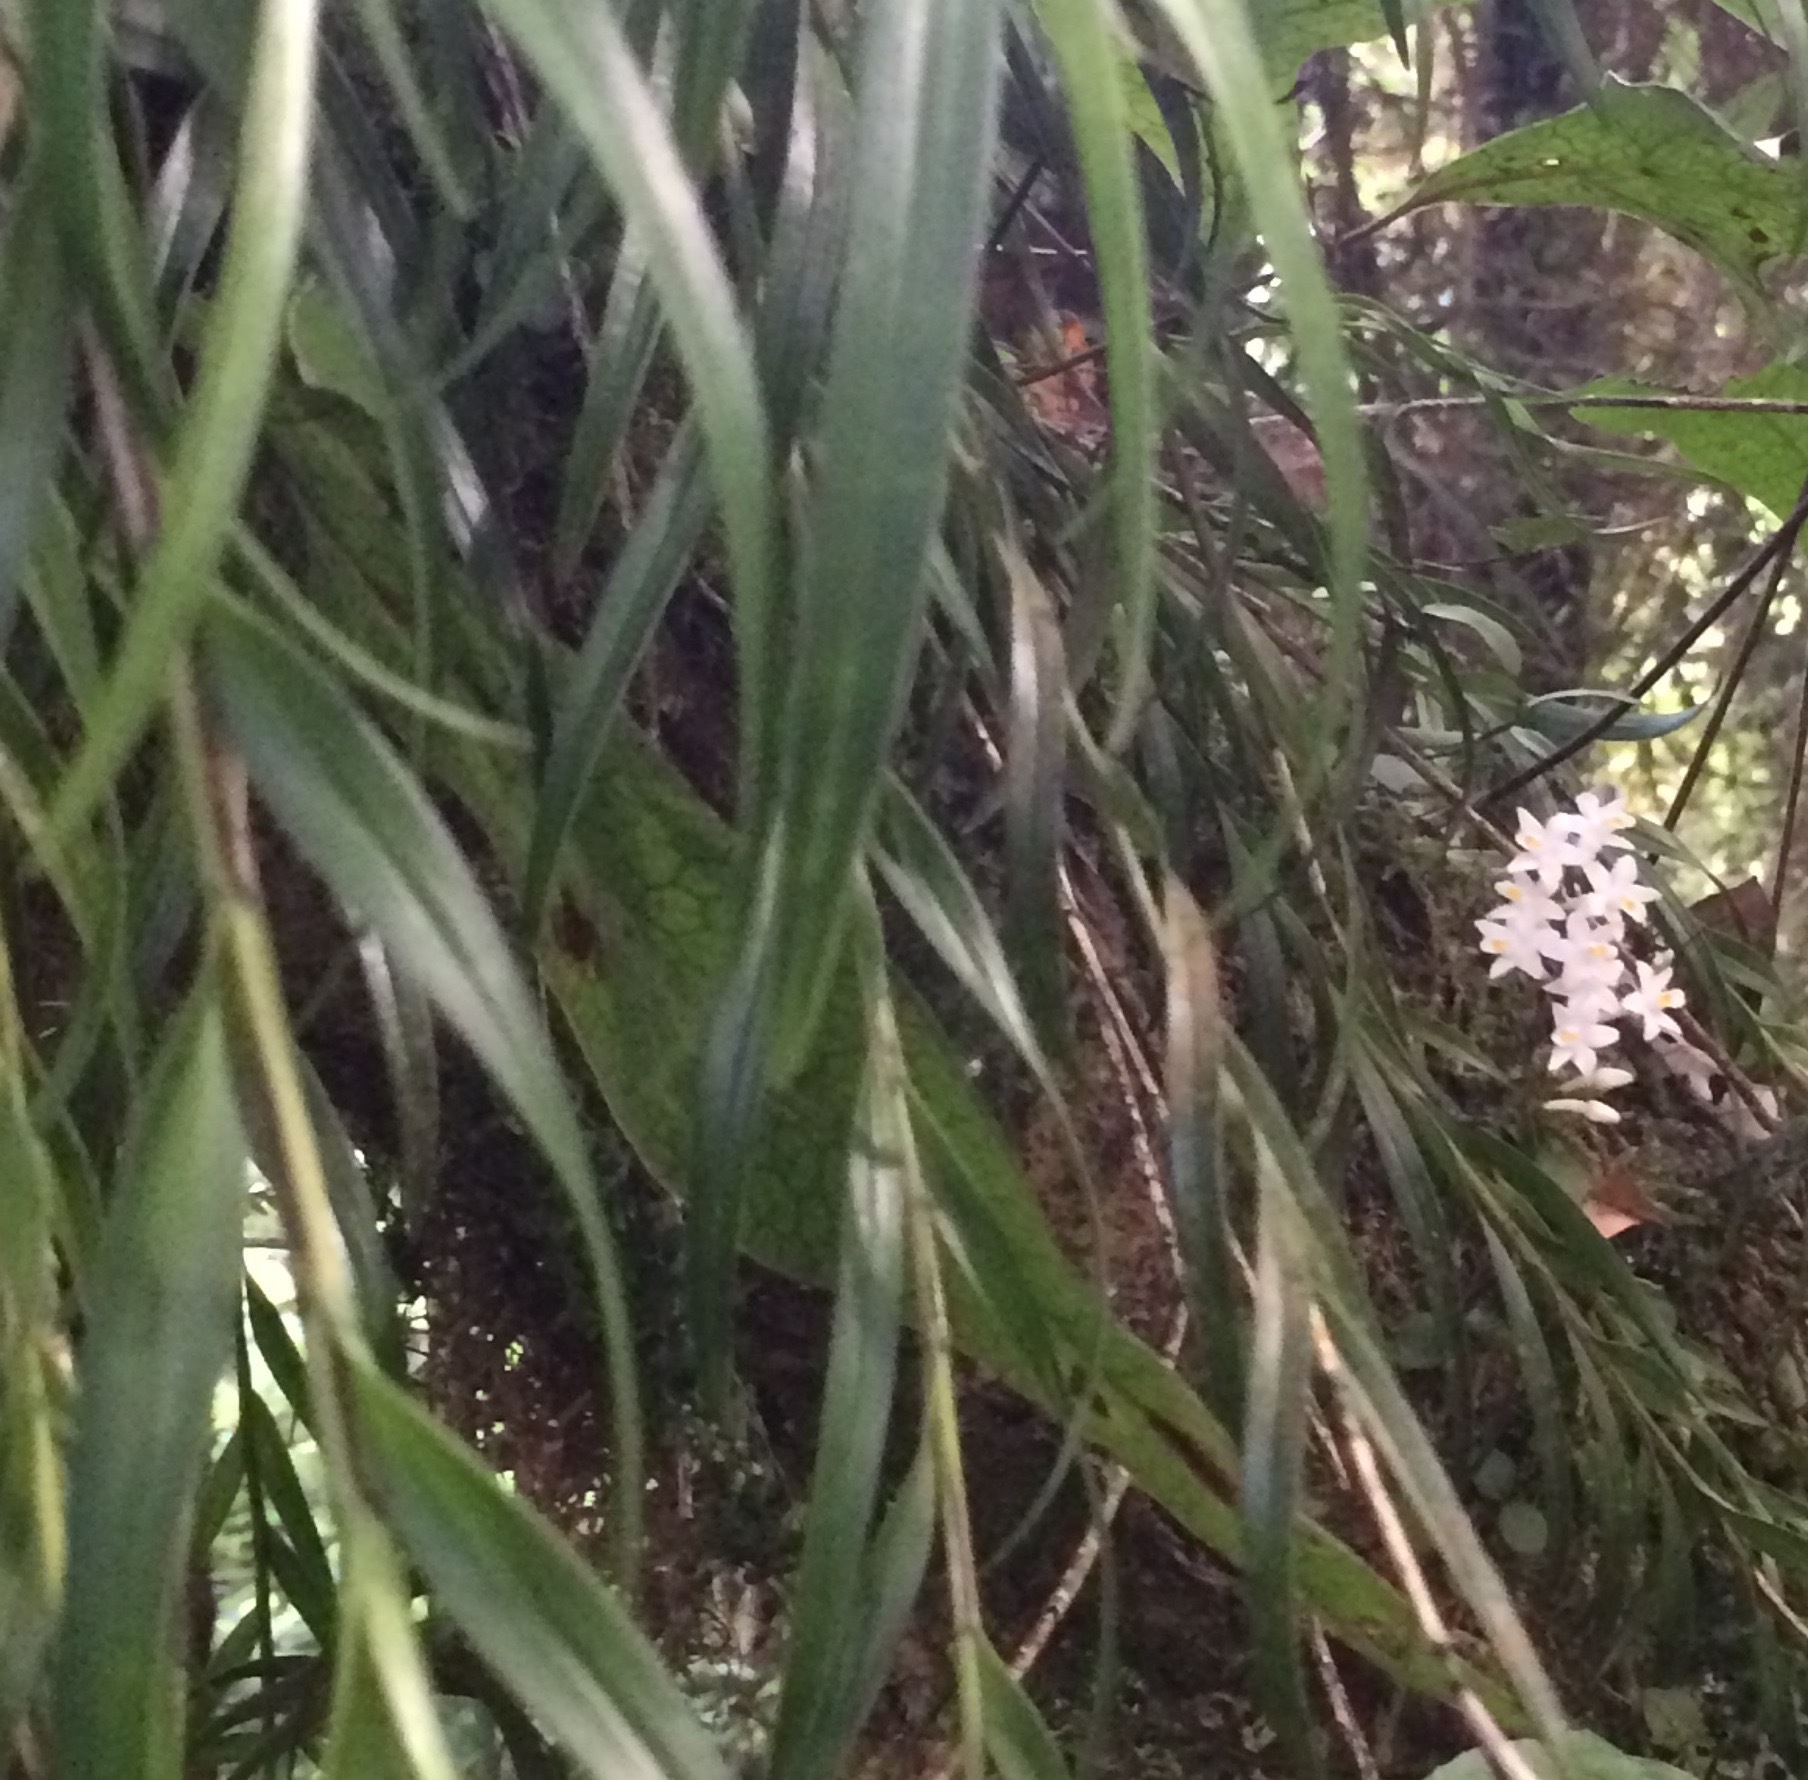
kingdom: Plantae
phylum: Tracheophyta
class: Liliopsida
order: Asparagales
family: Orchidaceae
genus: Earina
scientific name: Earina autumnalis
